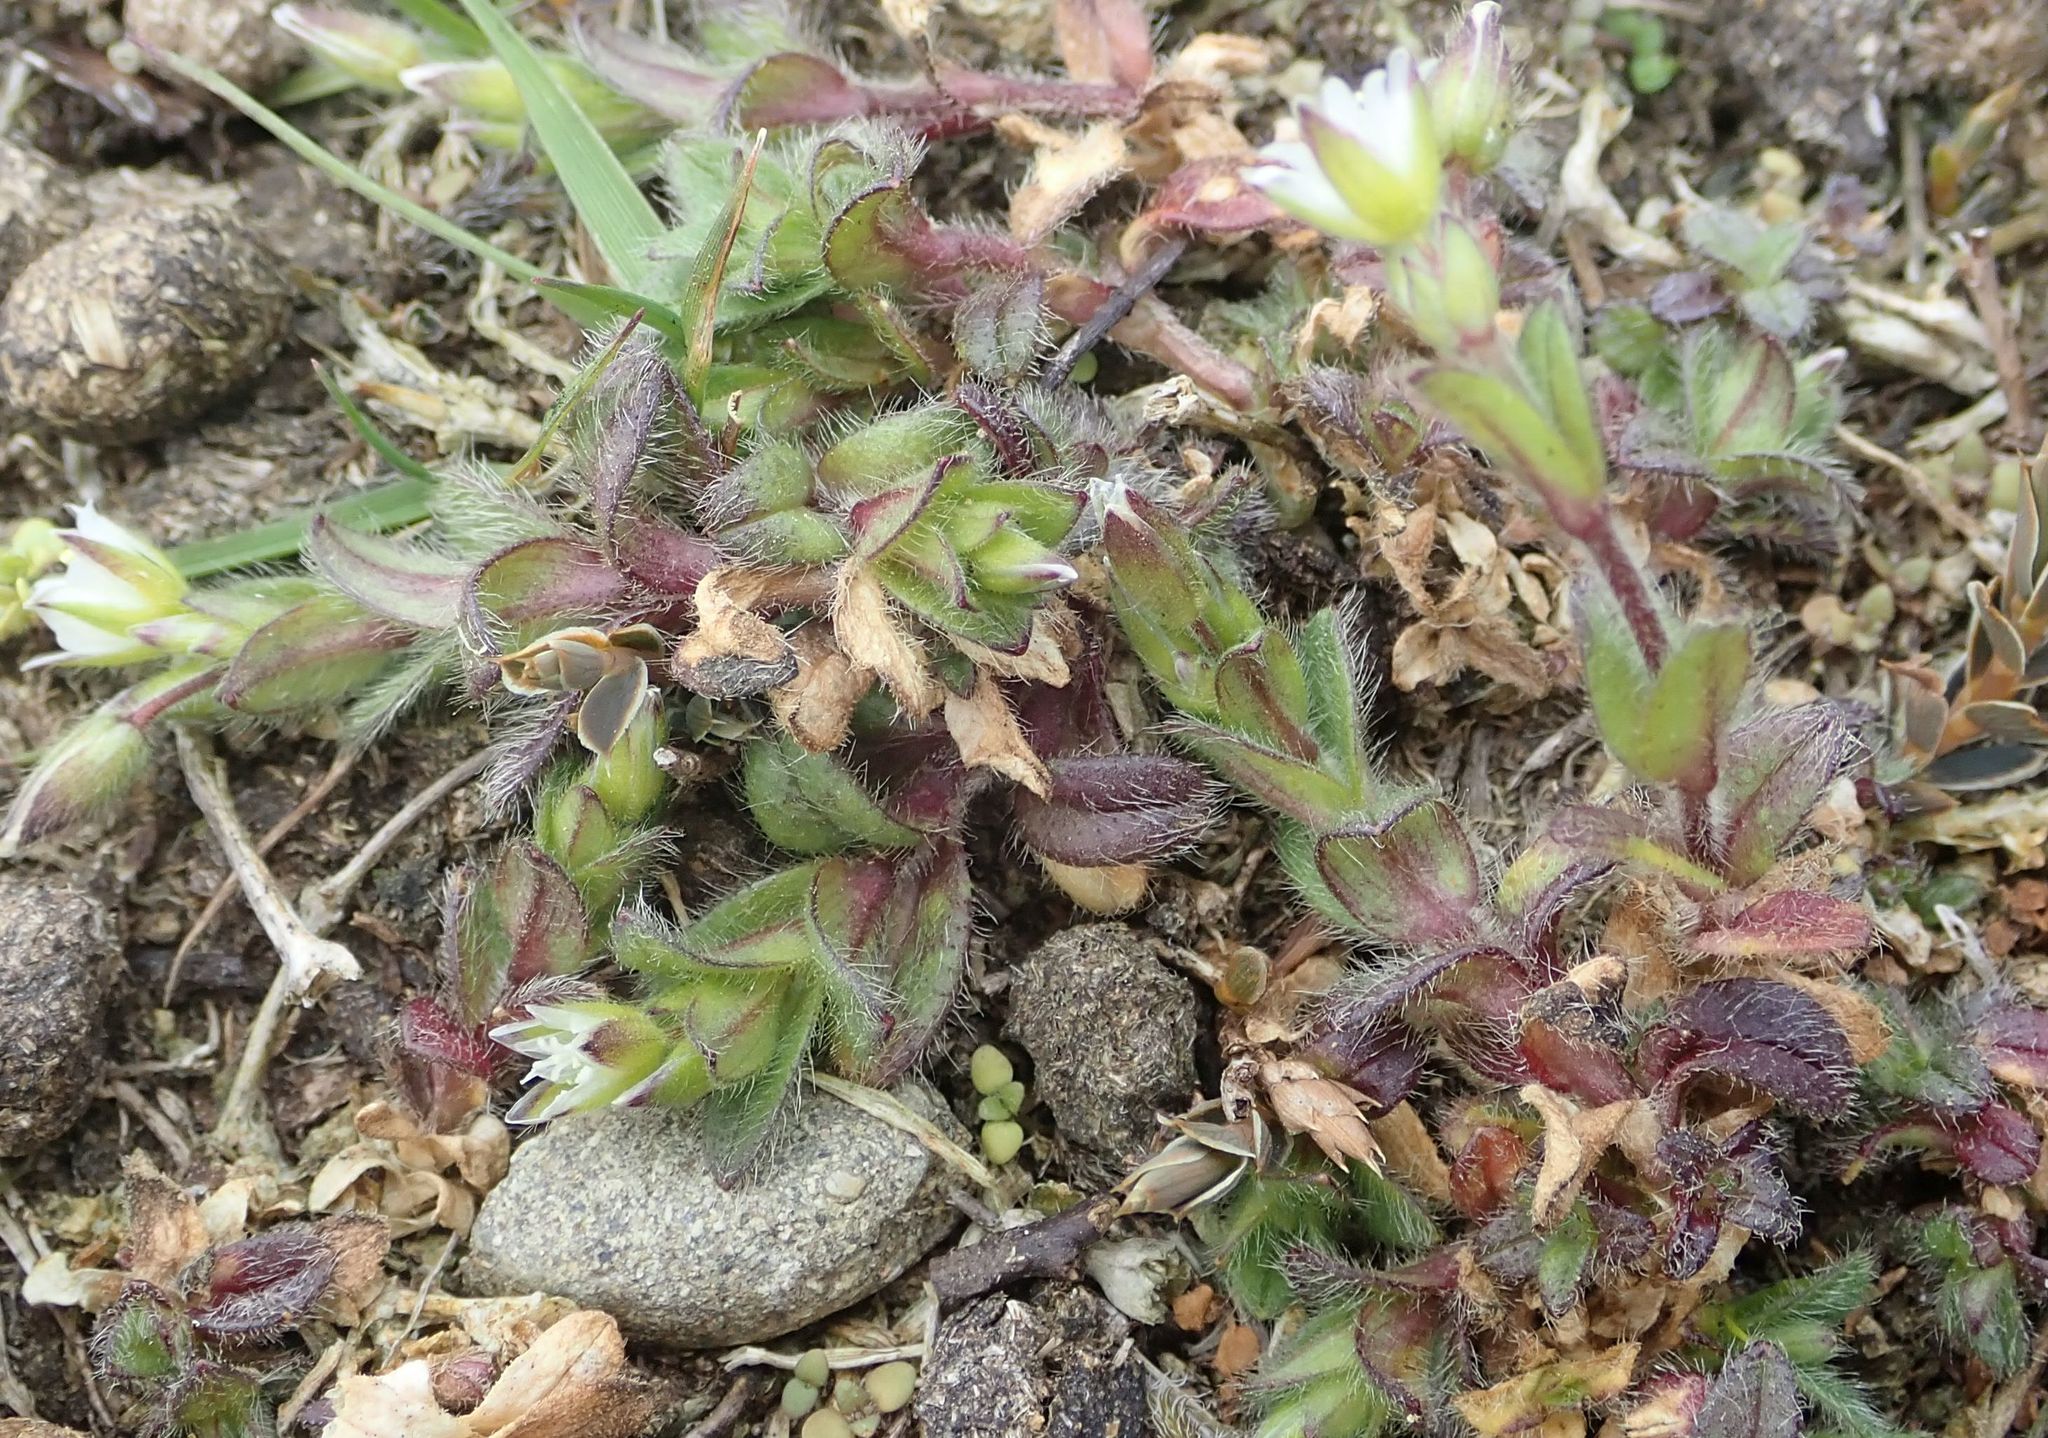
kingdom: Plantae
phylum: Tracheophyta
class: Magnoliopsida
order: Caryophyllales
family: Caryophyllaceae
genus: Cerastium
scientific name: Cerastium fontanum
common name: Common mouse-ear
